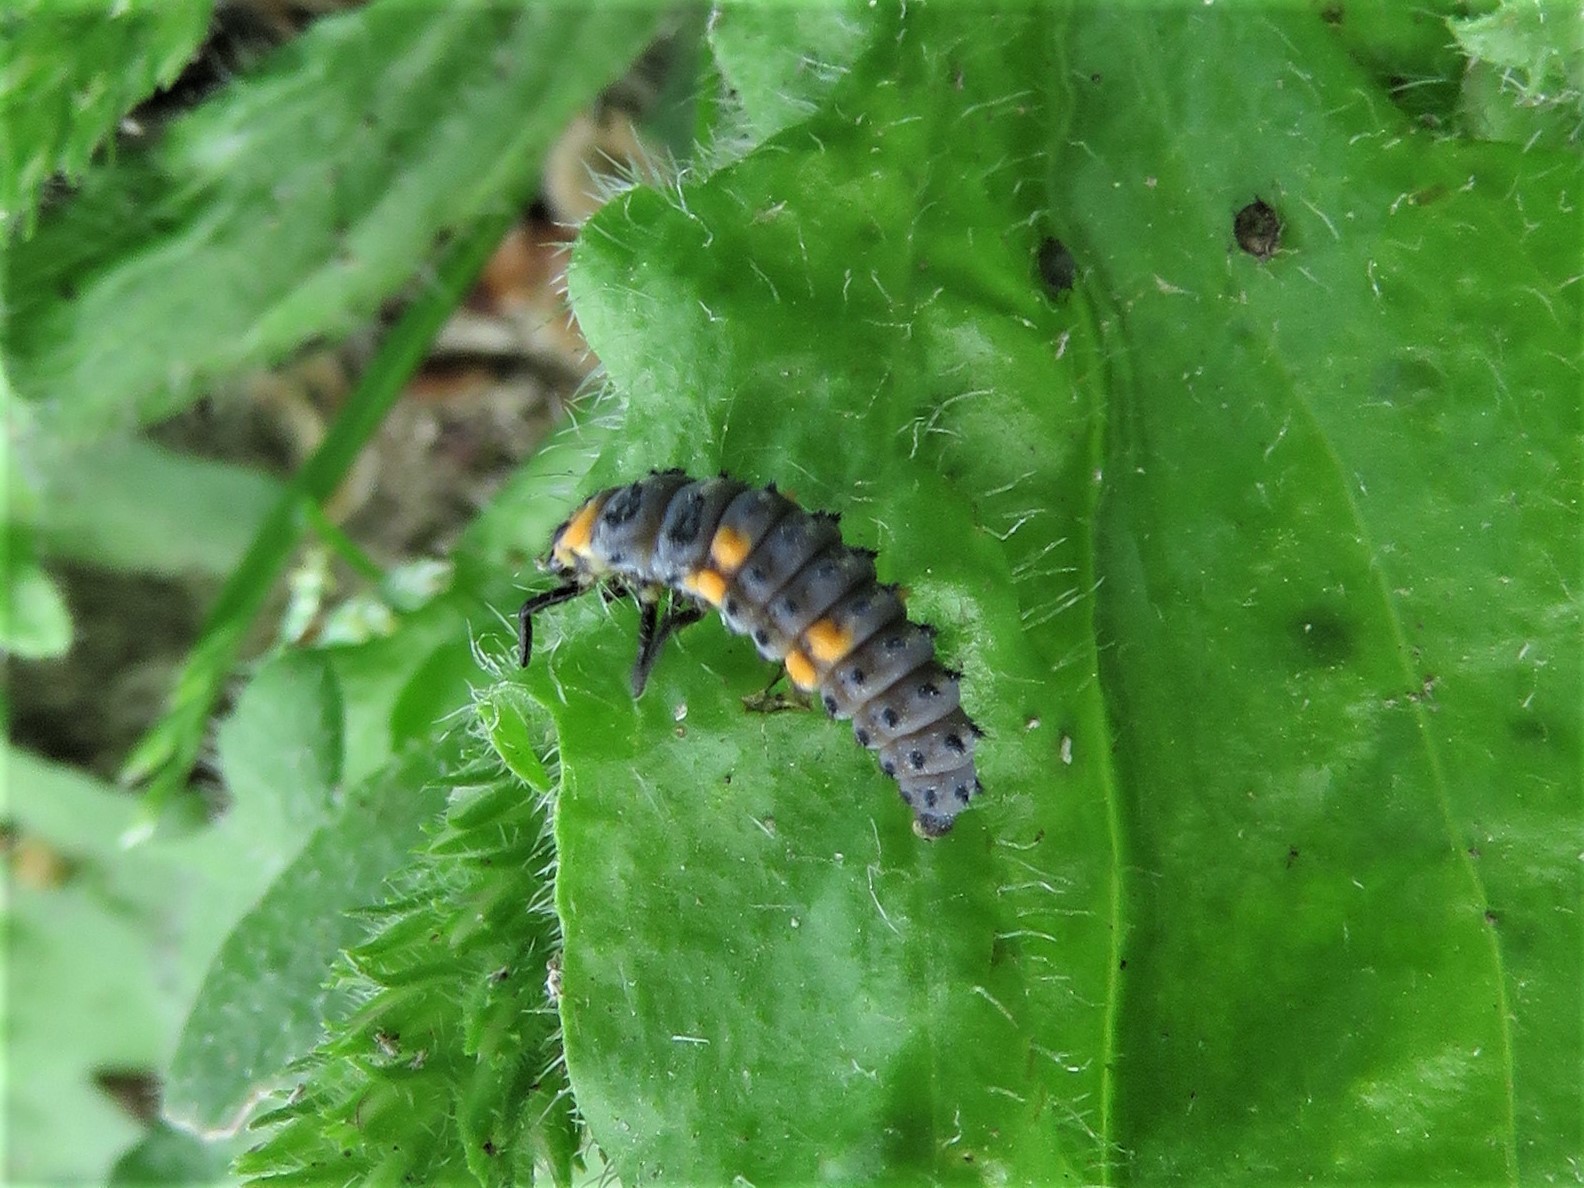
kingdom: Animalia
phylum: Arthropoda
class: Insecta
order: Coleoptera
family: Coccinellidae
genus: Coccinella
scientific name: Coccinella septempunctata
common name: Sevenspotted lady beetle
